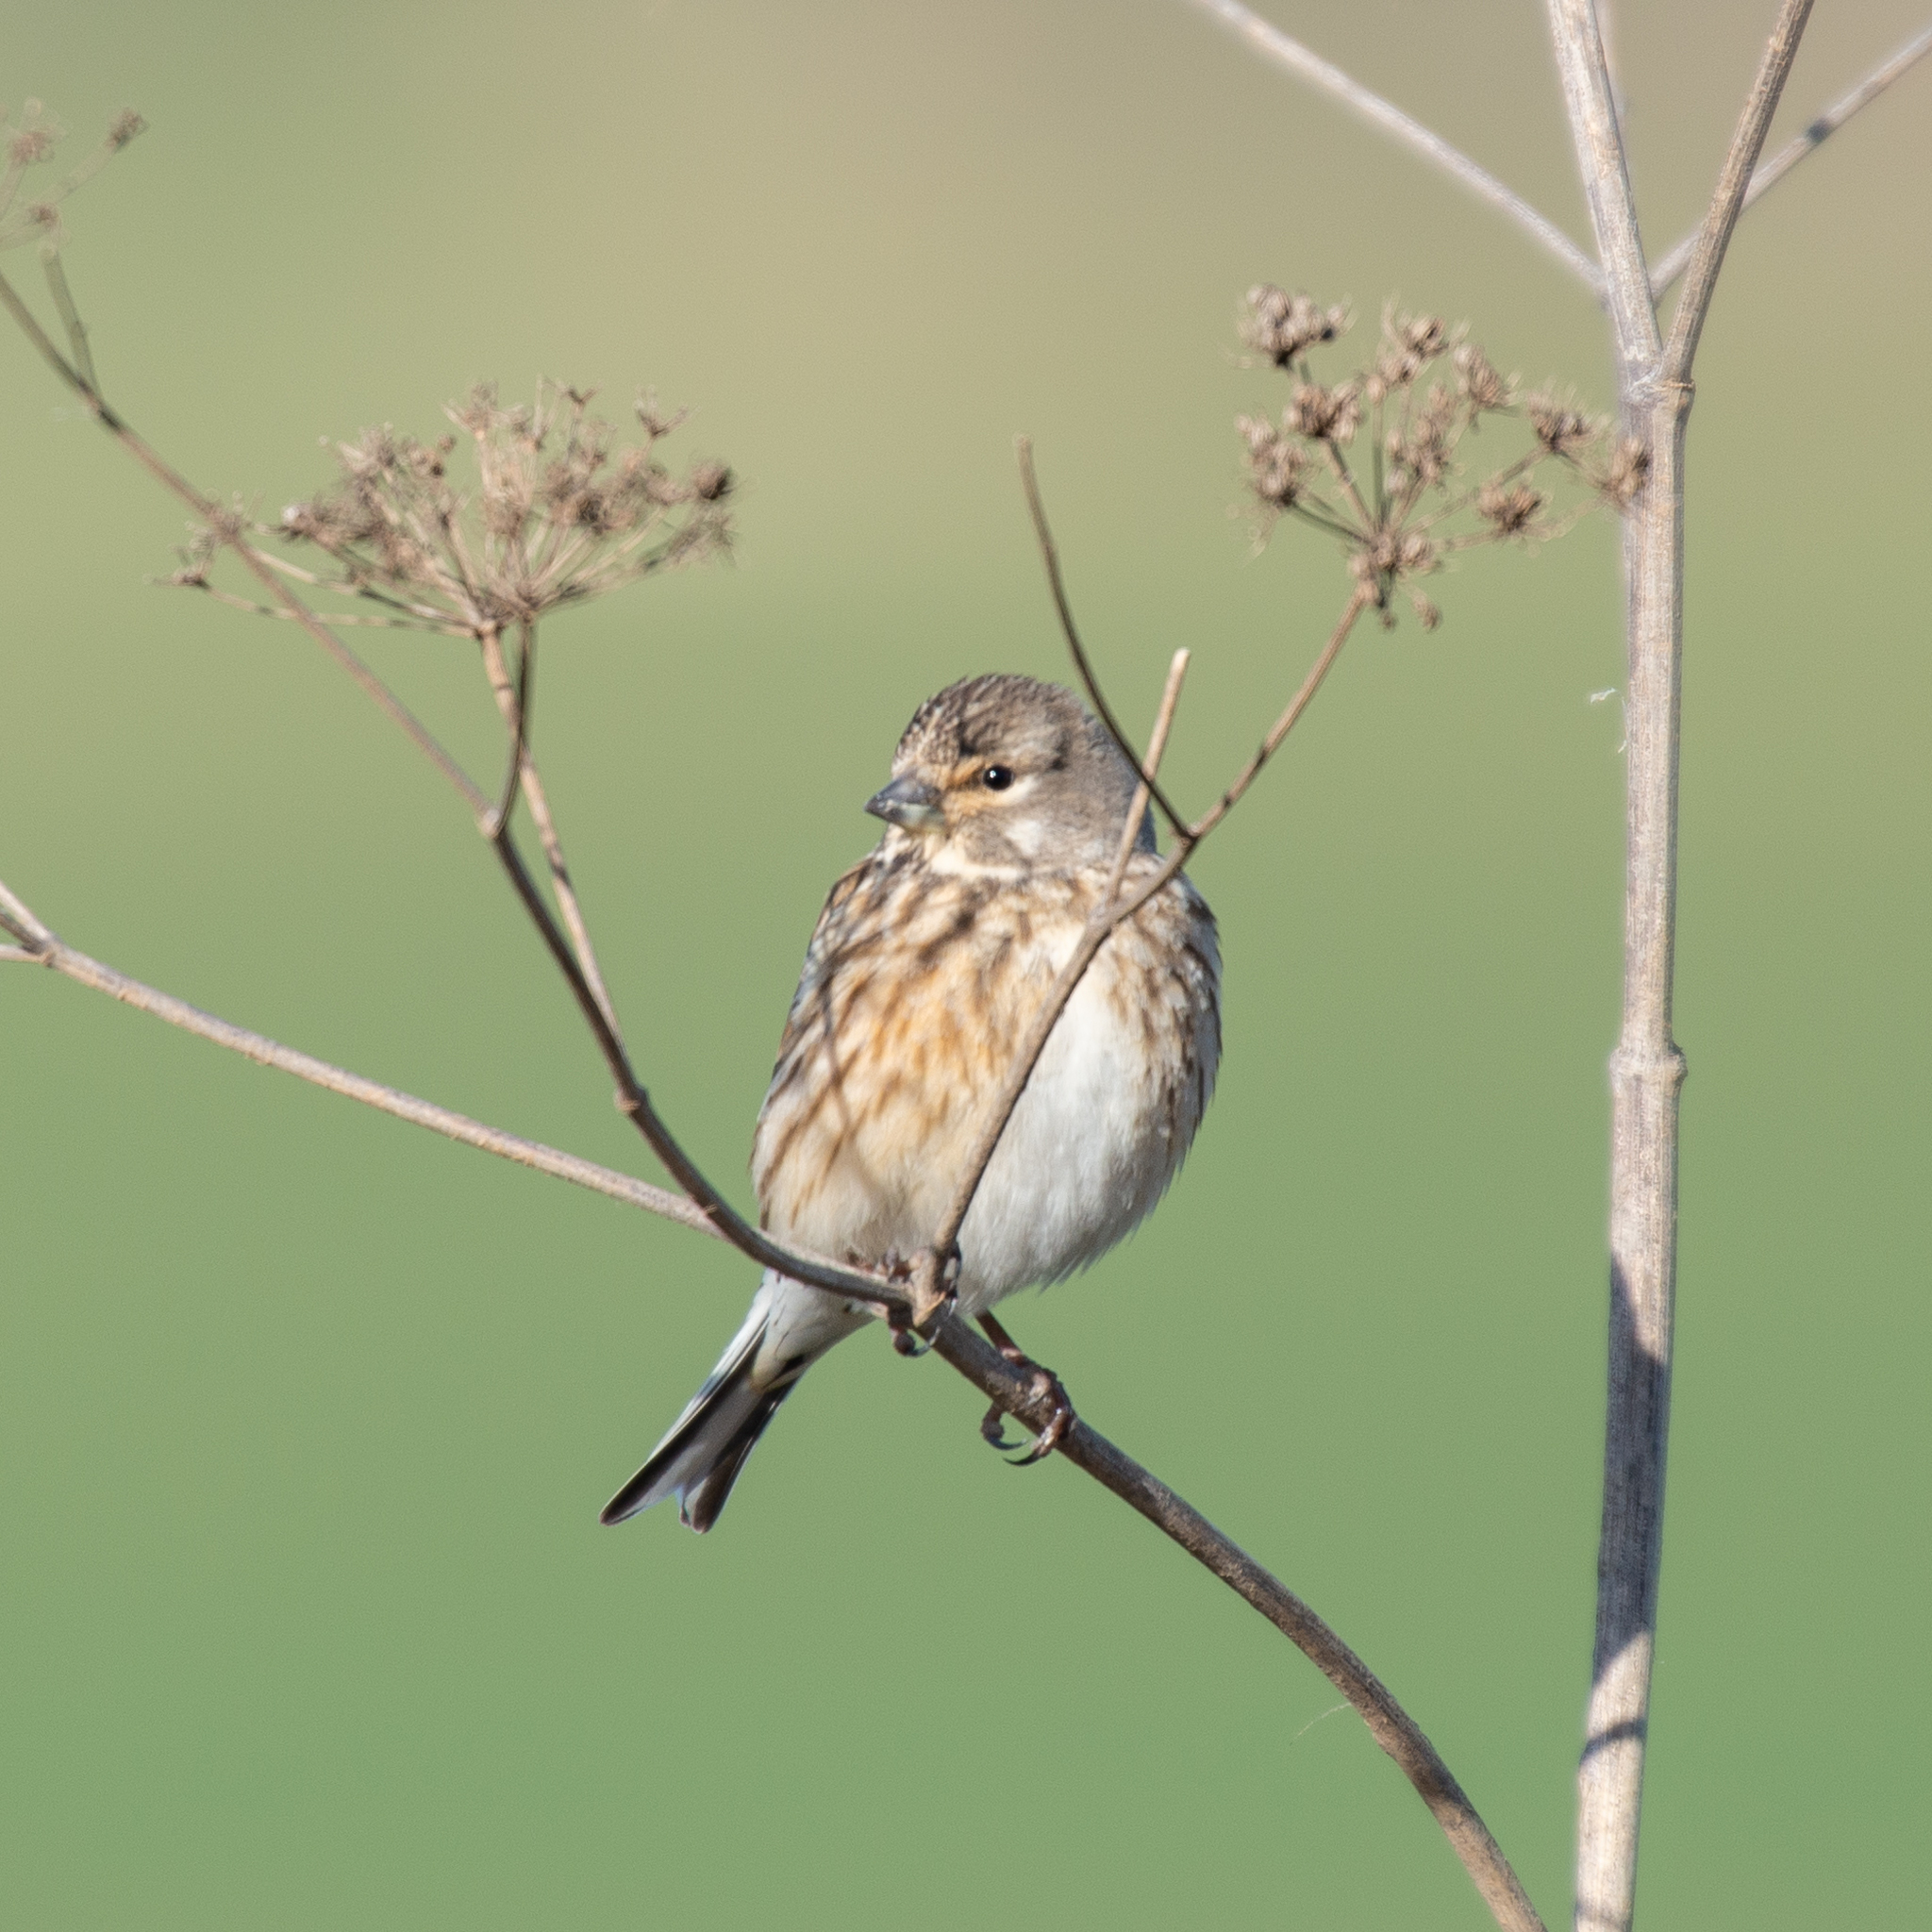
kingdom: Animalia
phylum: Chordata
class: Aves
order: Passeriformes
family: Fringillidae
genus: Linaria
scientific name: Linaria cannabina
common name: Common linnet
